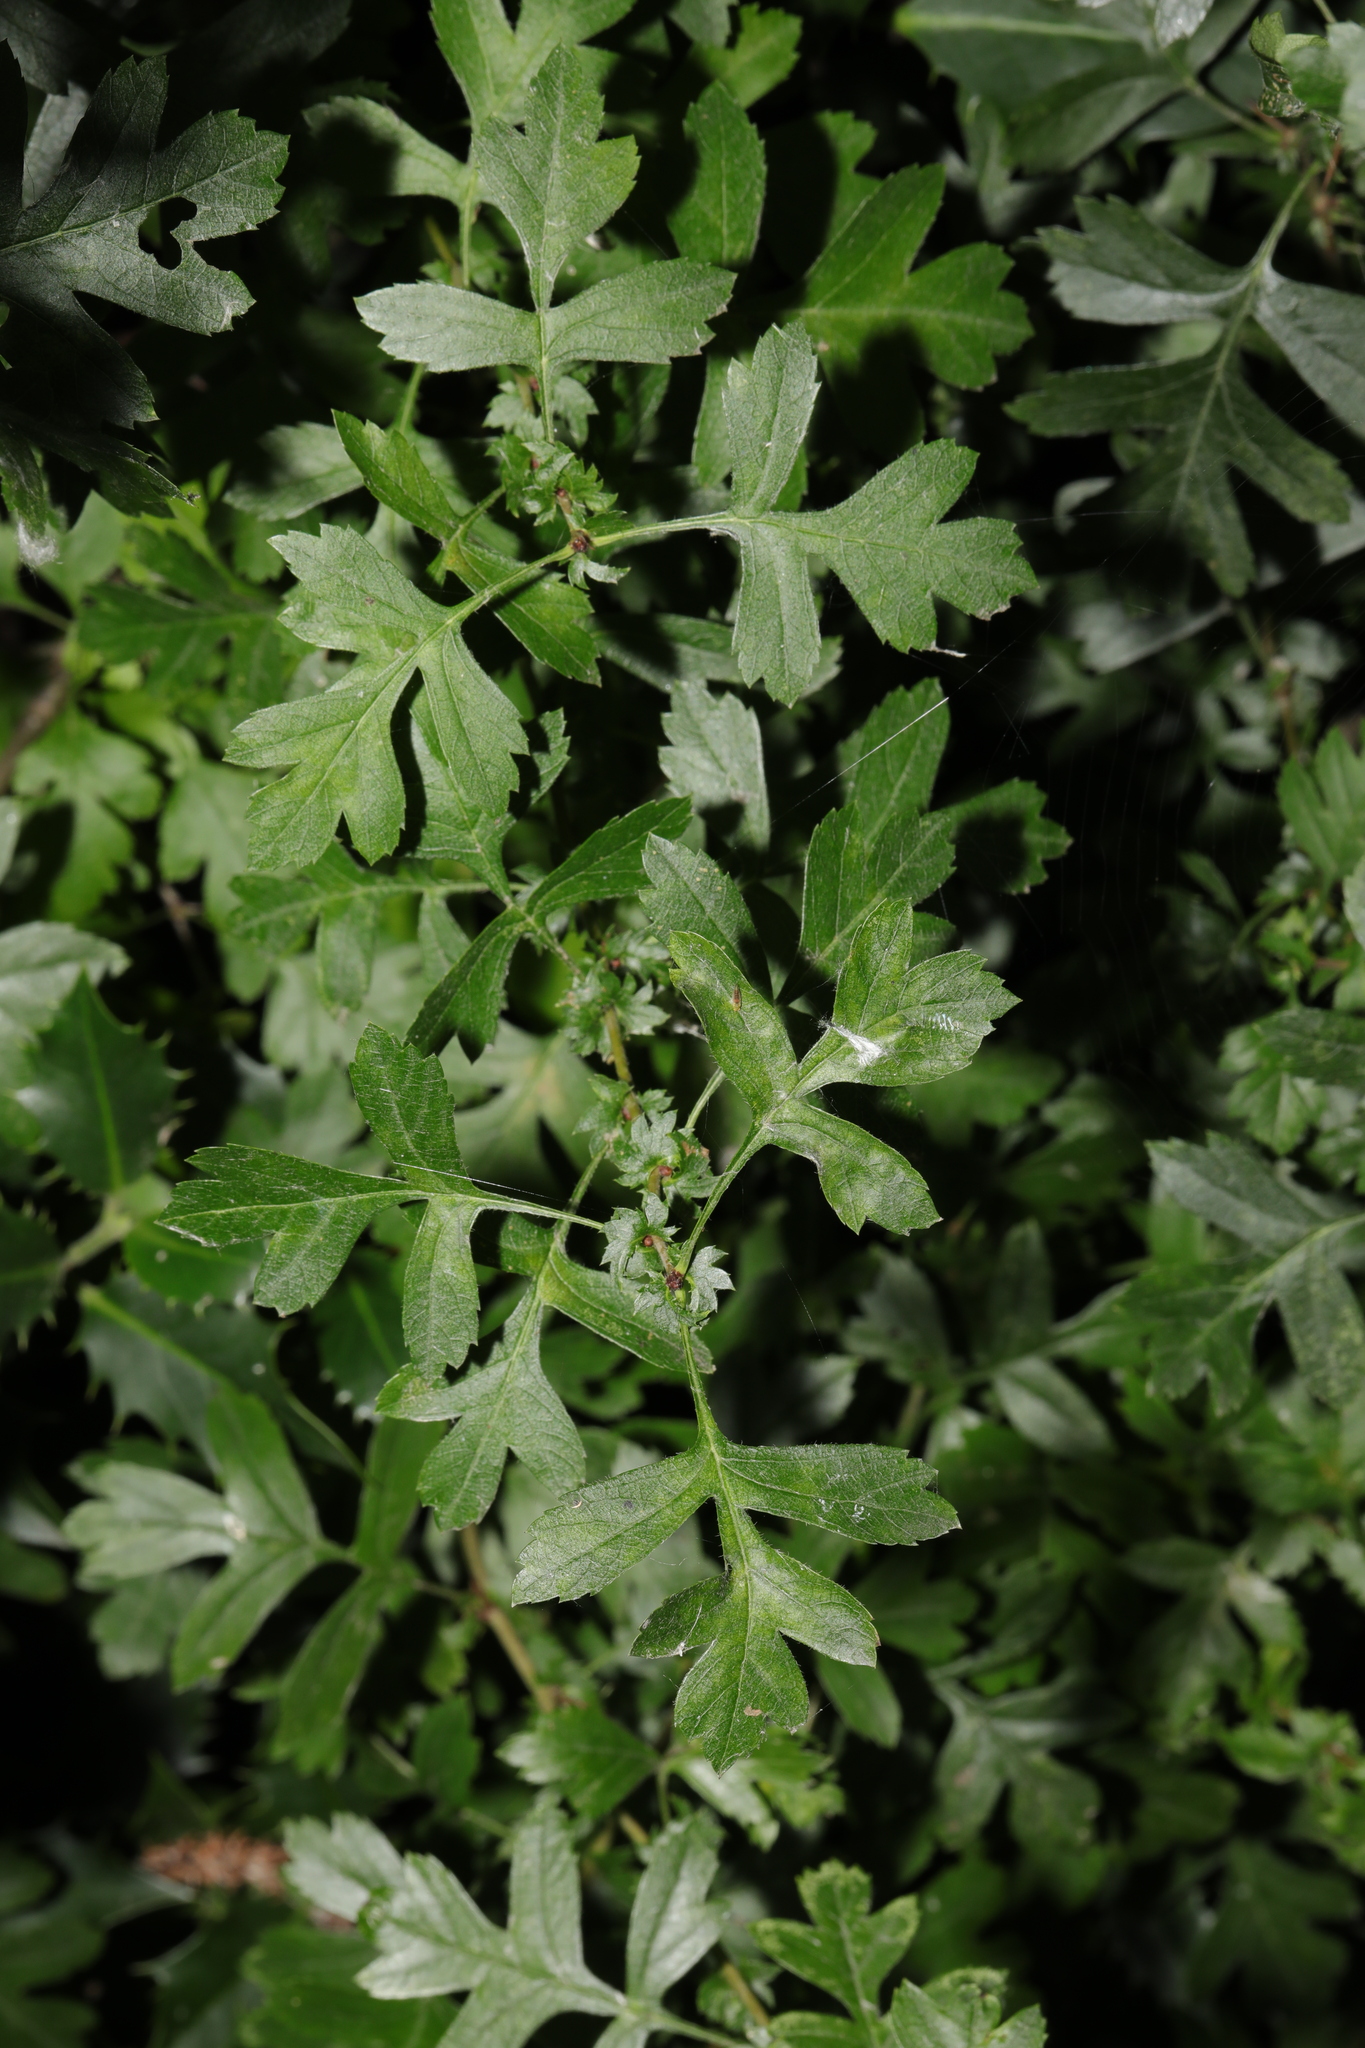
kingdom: Plantae
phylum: Tracheophyta
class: Magnoliopsida
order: Rosales
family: Rosaceae
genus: Crataegus
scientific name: Crataegus monogyna
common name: Hawthorn
